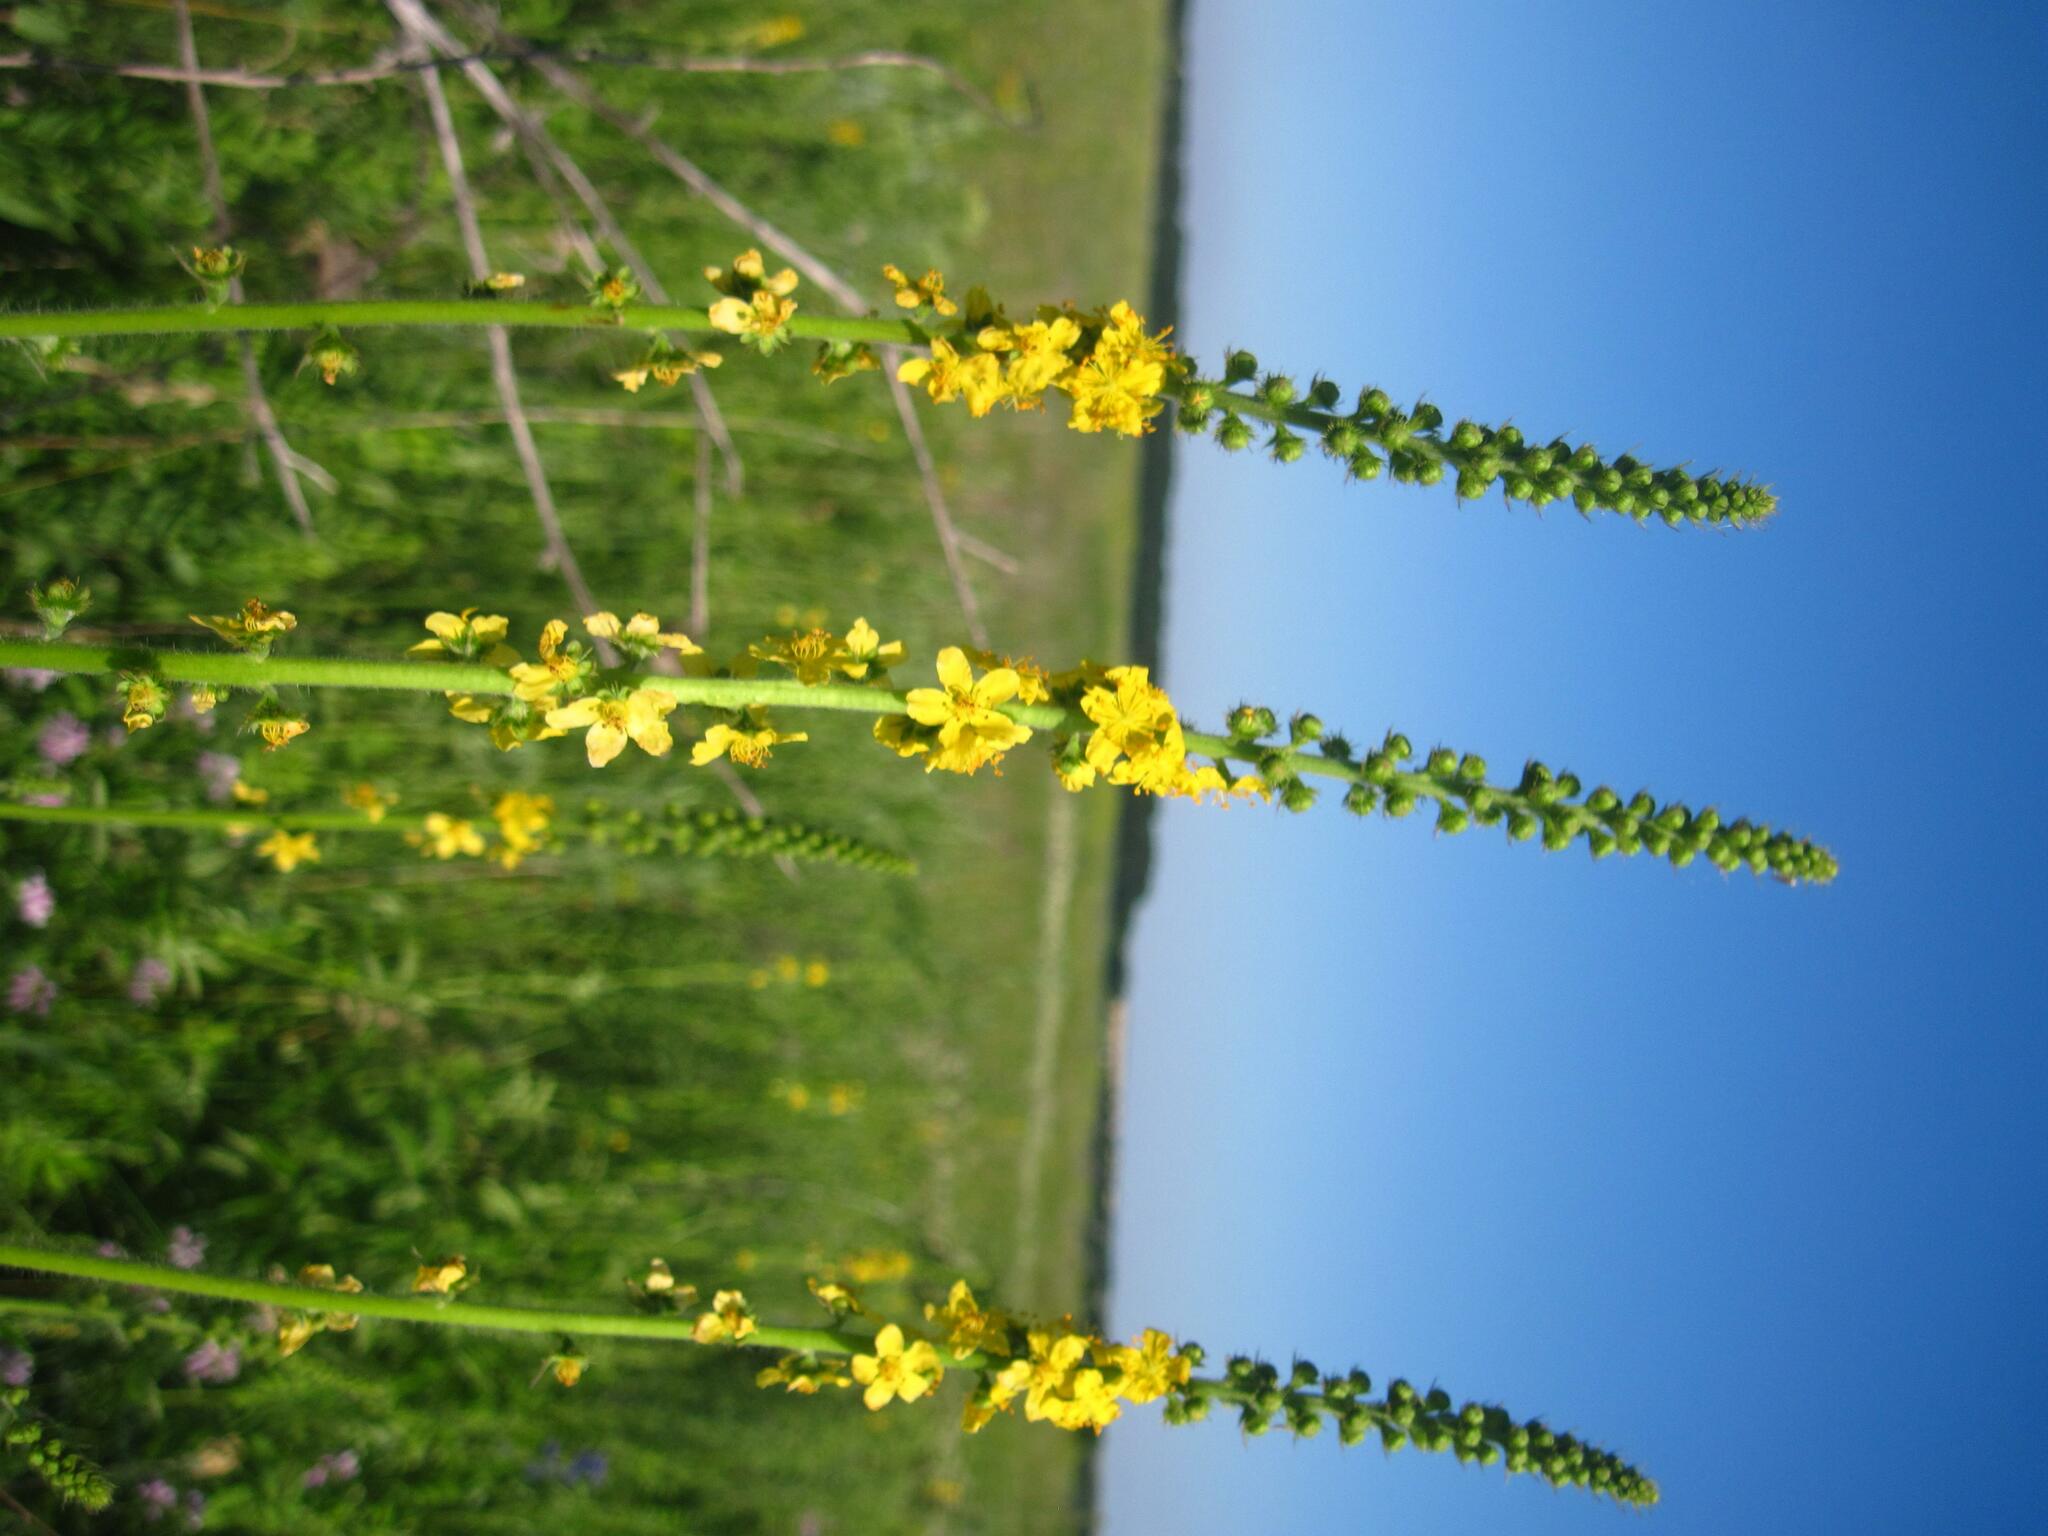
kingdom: Plantae
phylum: Tracheophyta
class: Magnoliopsida
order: Rosales
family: Rosaceae
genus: Agrimonia
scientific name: Agrimonia eupatoria
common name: Agrimony
